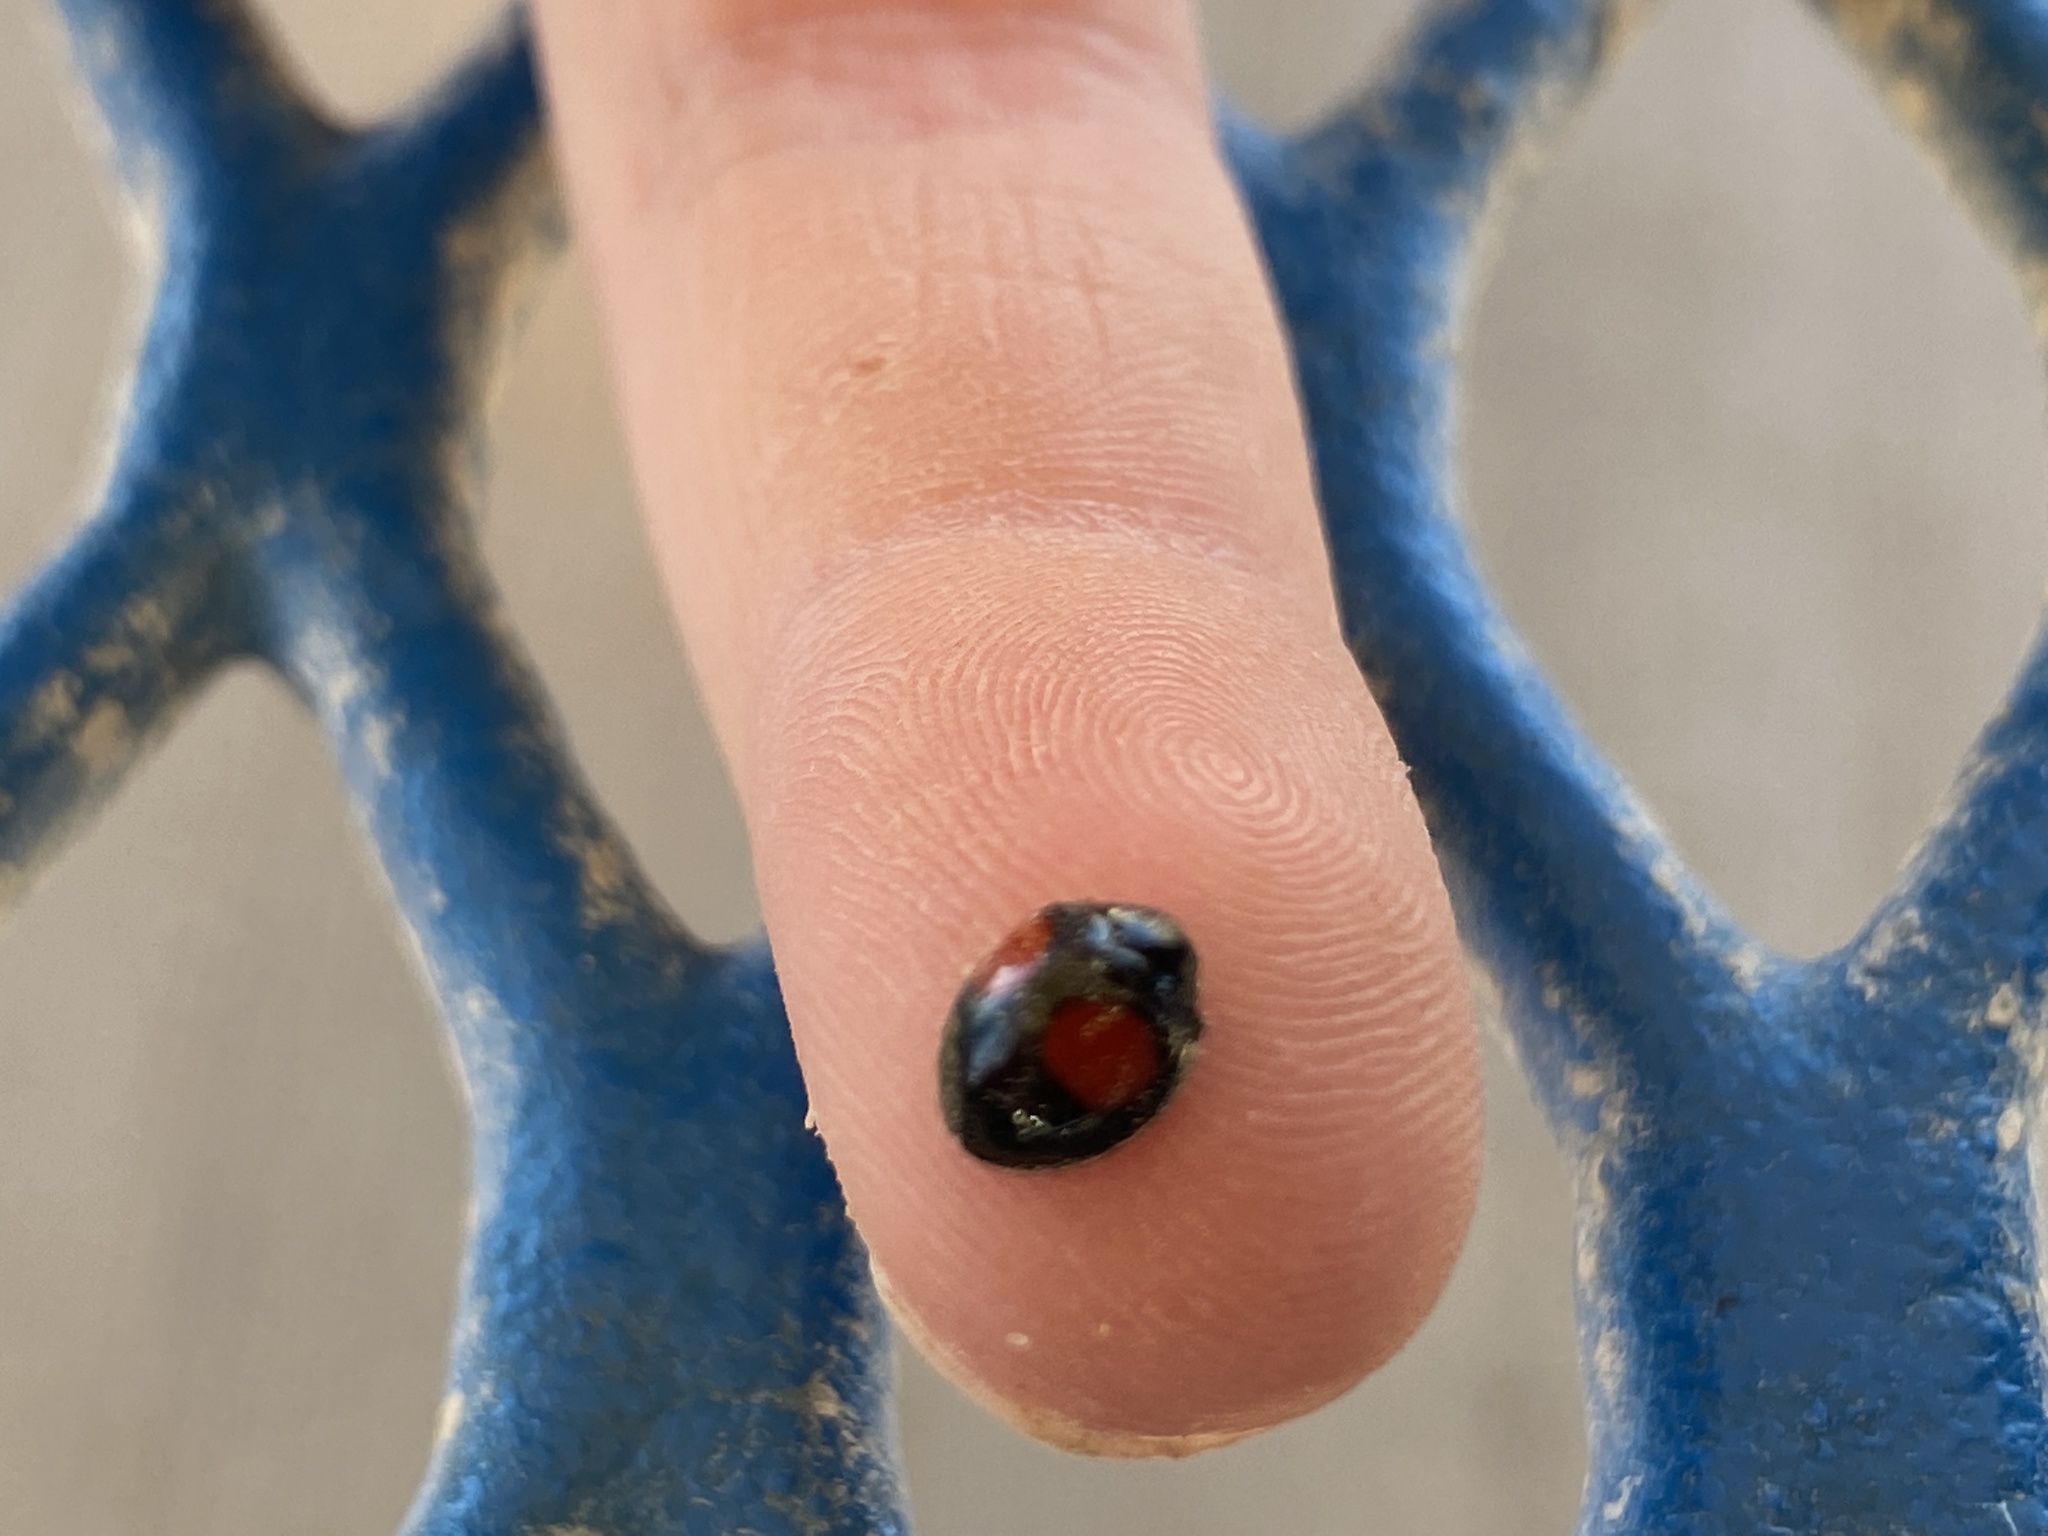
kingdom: Animalia
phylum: Arthropoda
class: Insecta
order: Coleoptera
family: Coccinellidae
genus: Chilocorus
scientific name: Chilocorus cacti
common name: Cactus lady beetle
